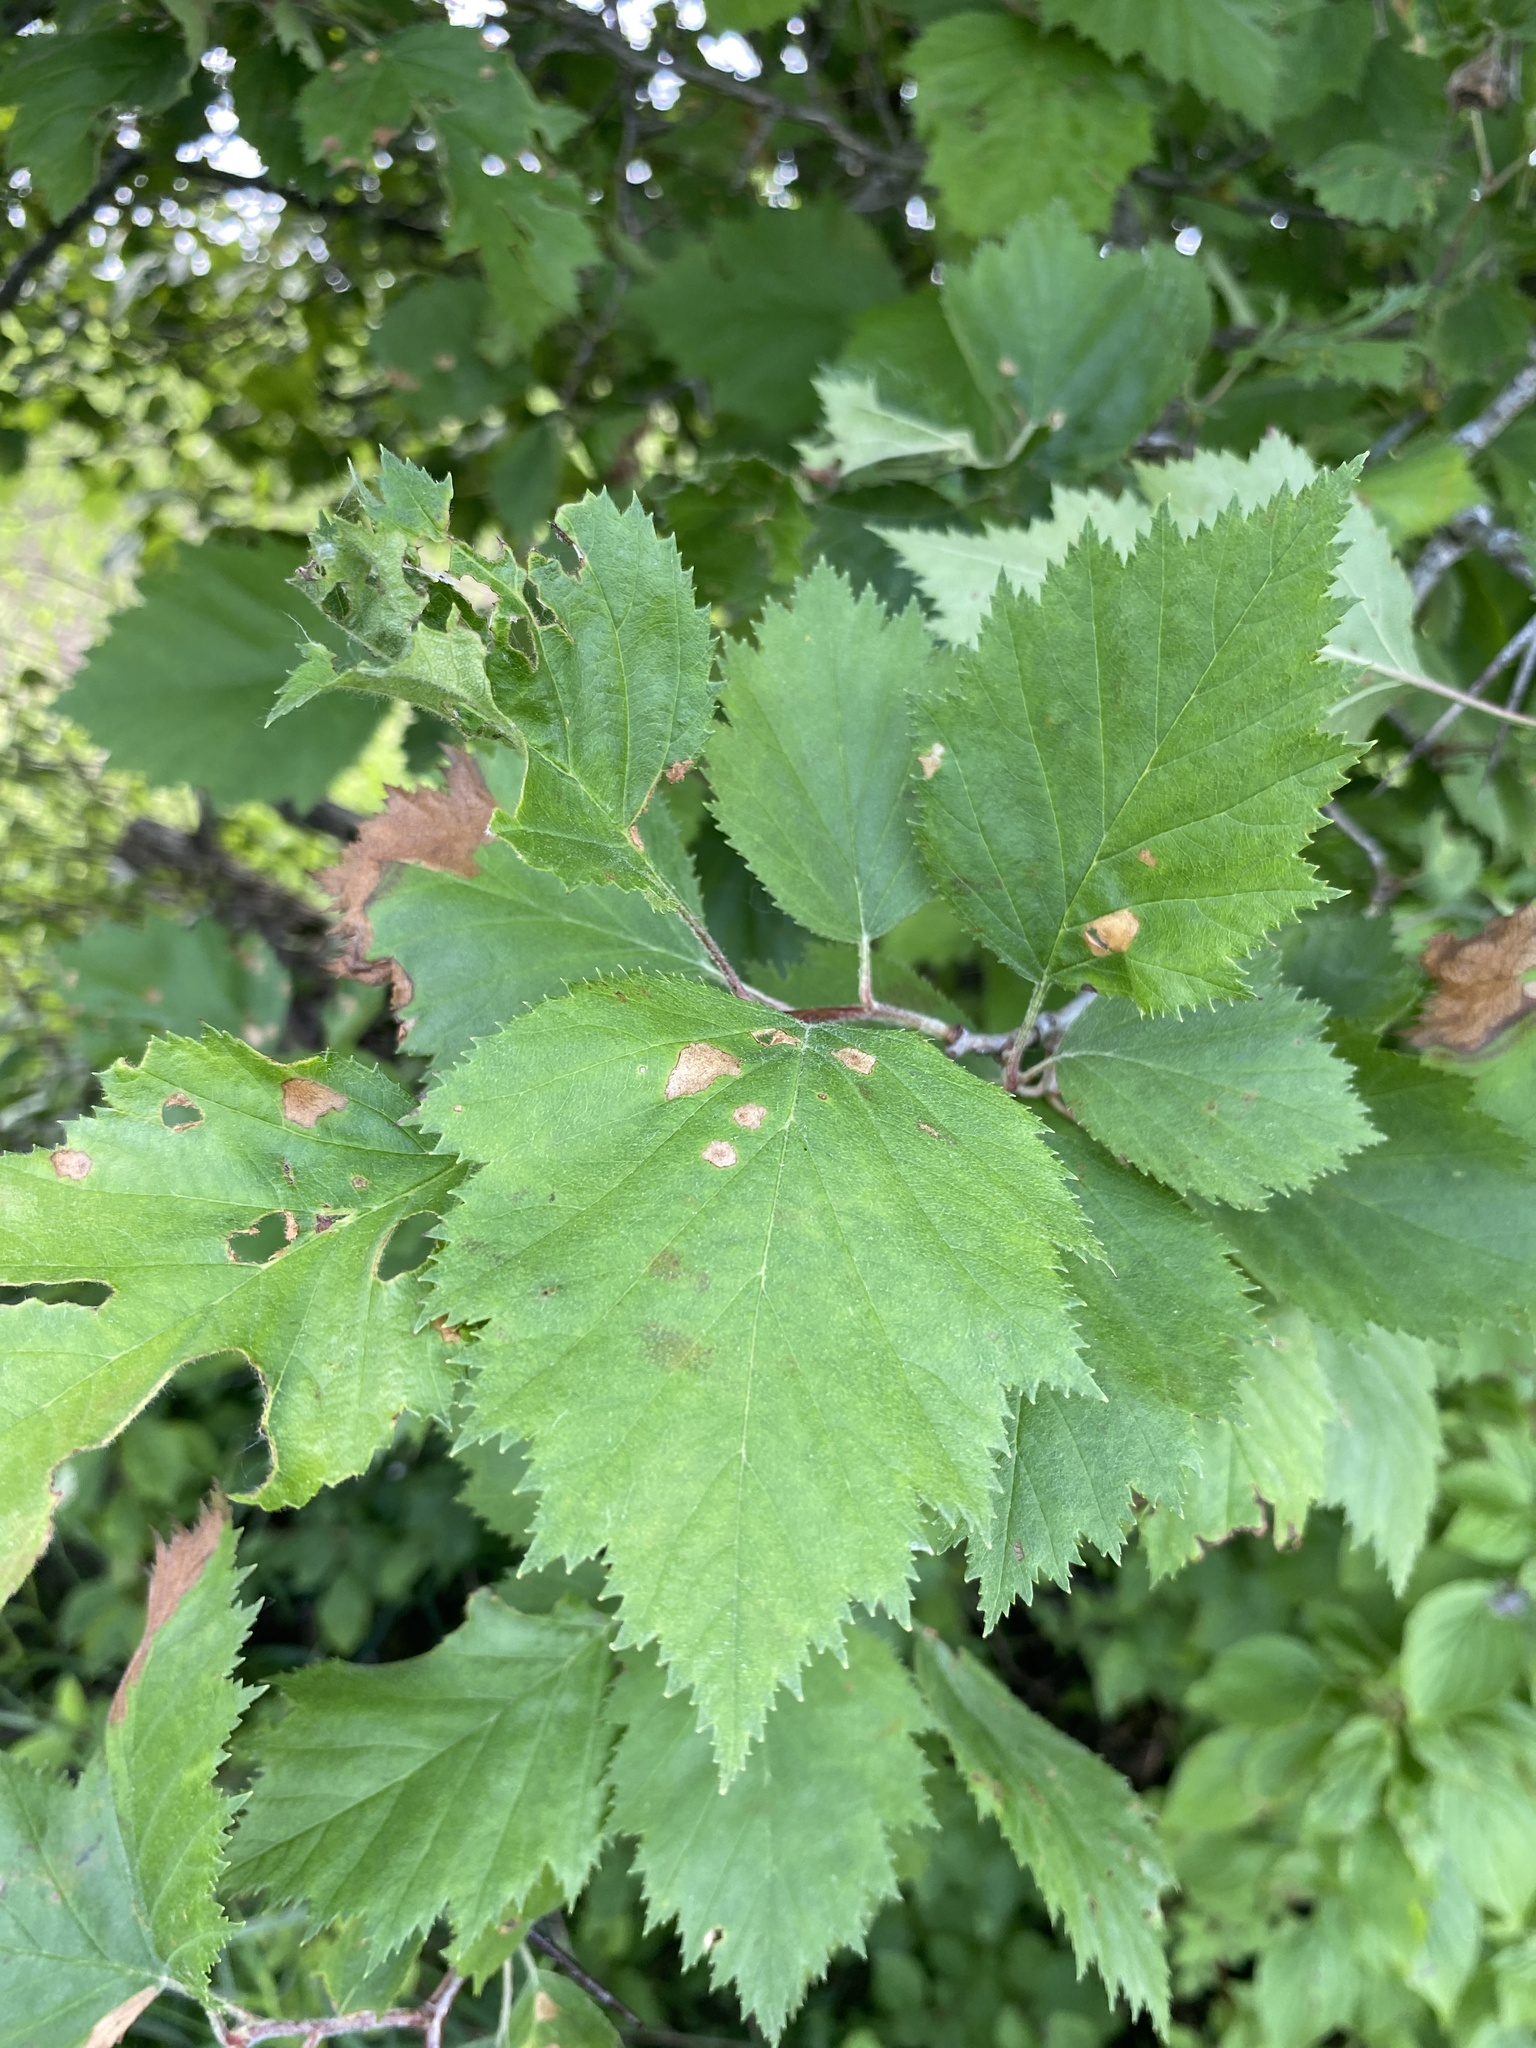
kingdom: Plantae
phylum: Tracheophyta
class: Magnoliopsida
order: Rosales
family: Rosaceae
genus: Crataegus
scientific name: Crataegus submollis
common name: Hairy cockspurthorn
